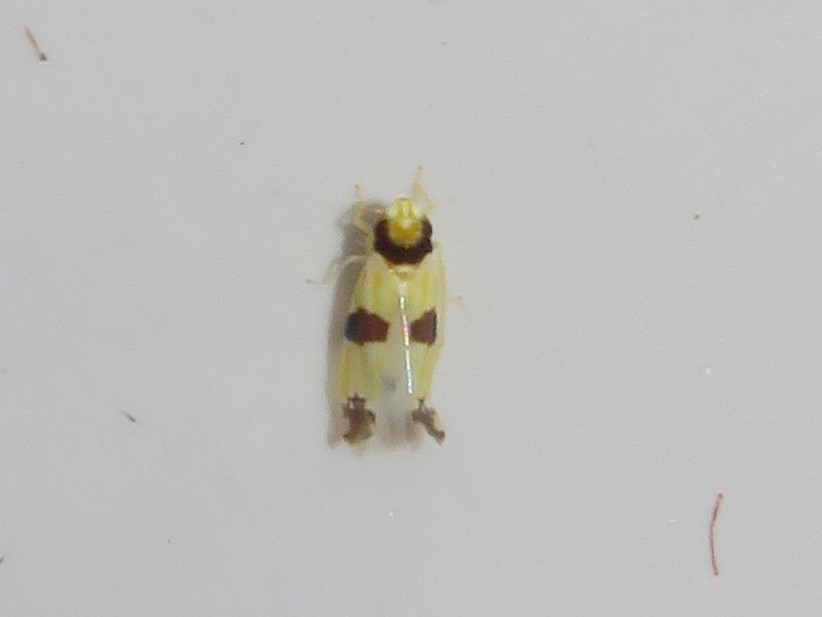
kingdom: Animalia
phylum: Arthropoda
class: Insecta
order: Hemiptera
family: Cicadellidae
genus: Erythroneura
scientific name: Erythroneura calycula
